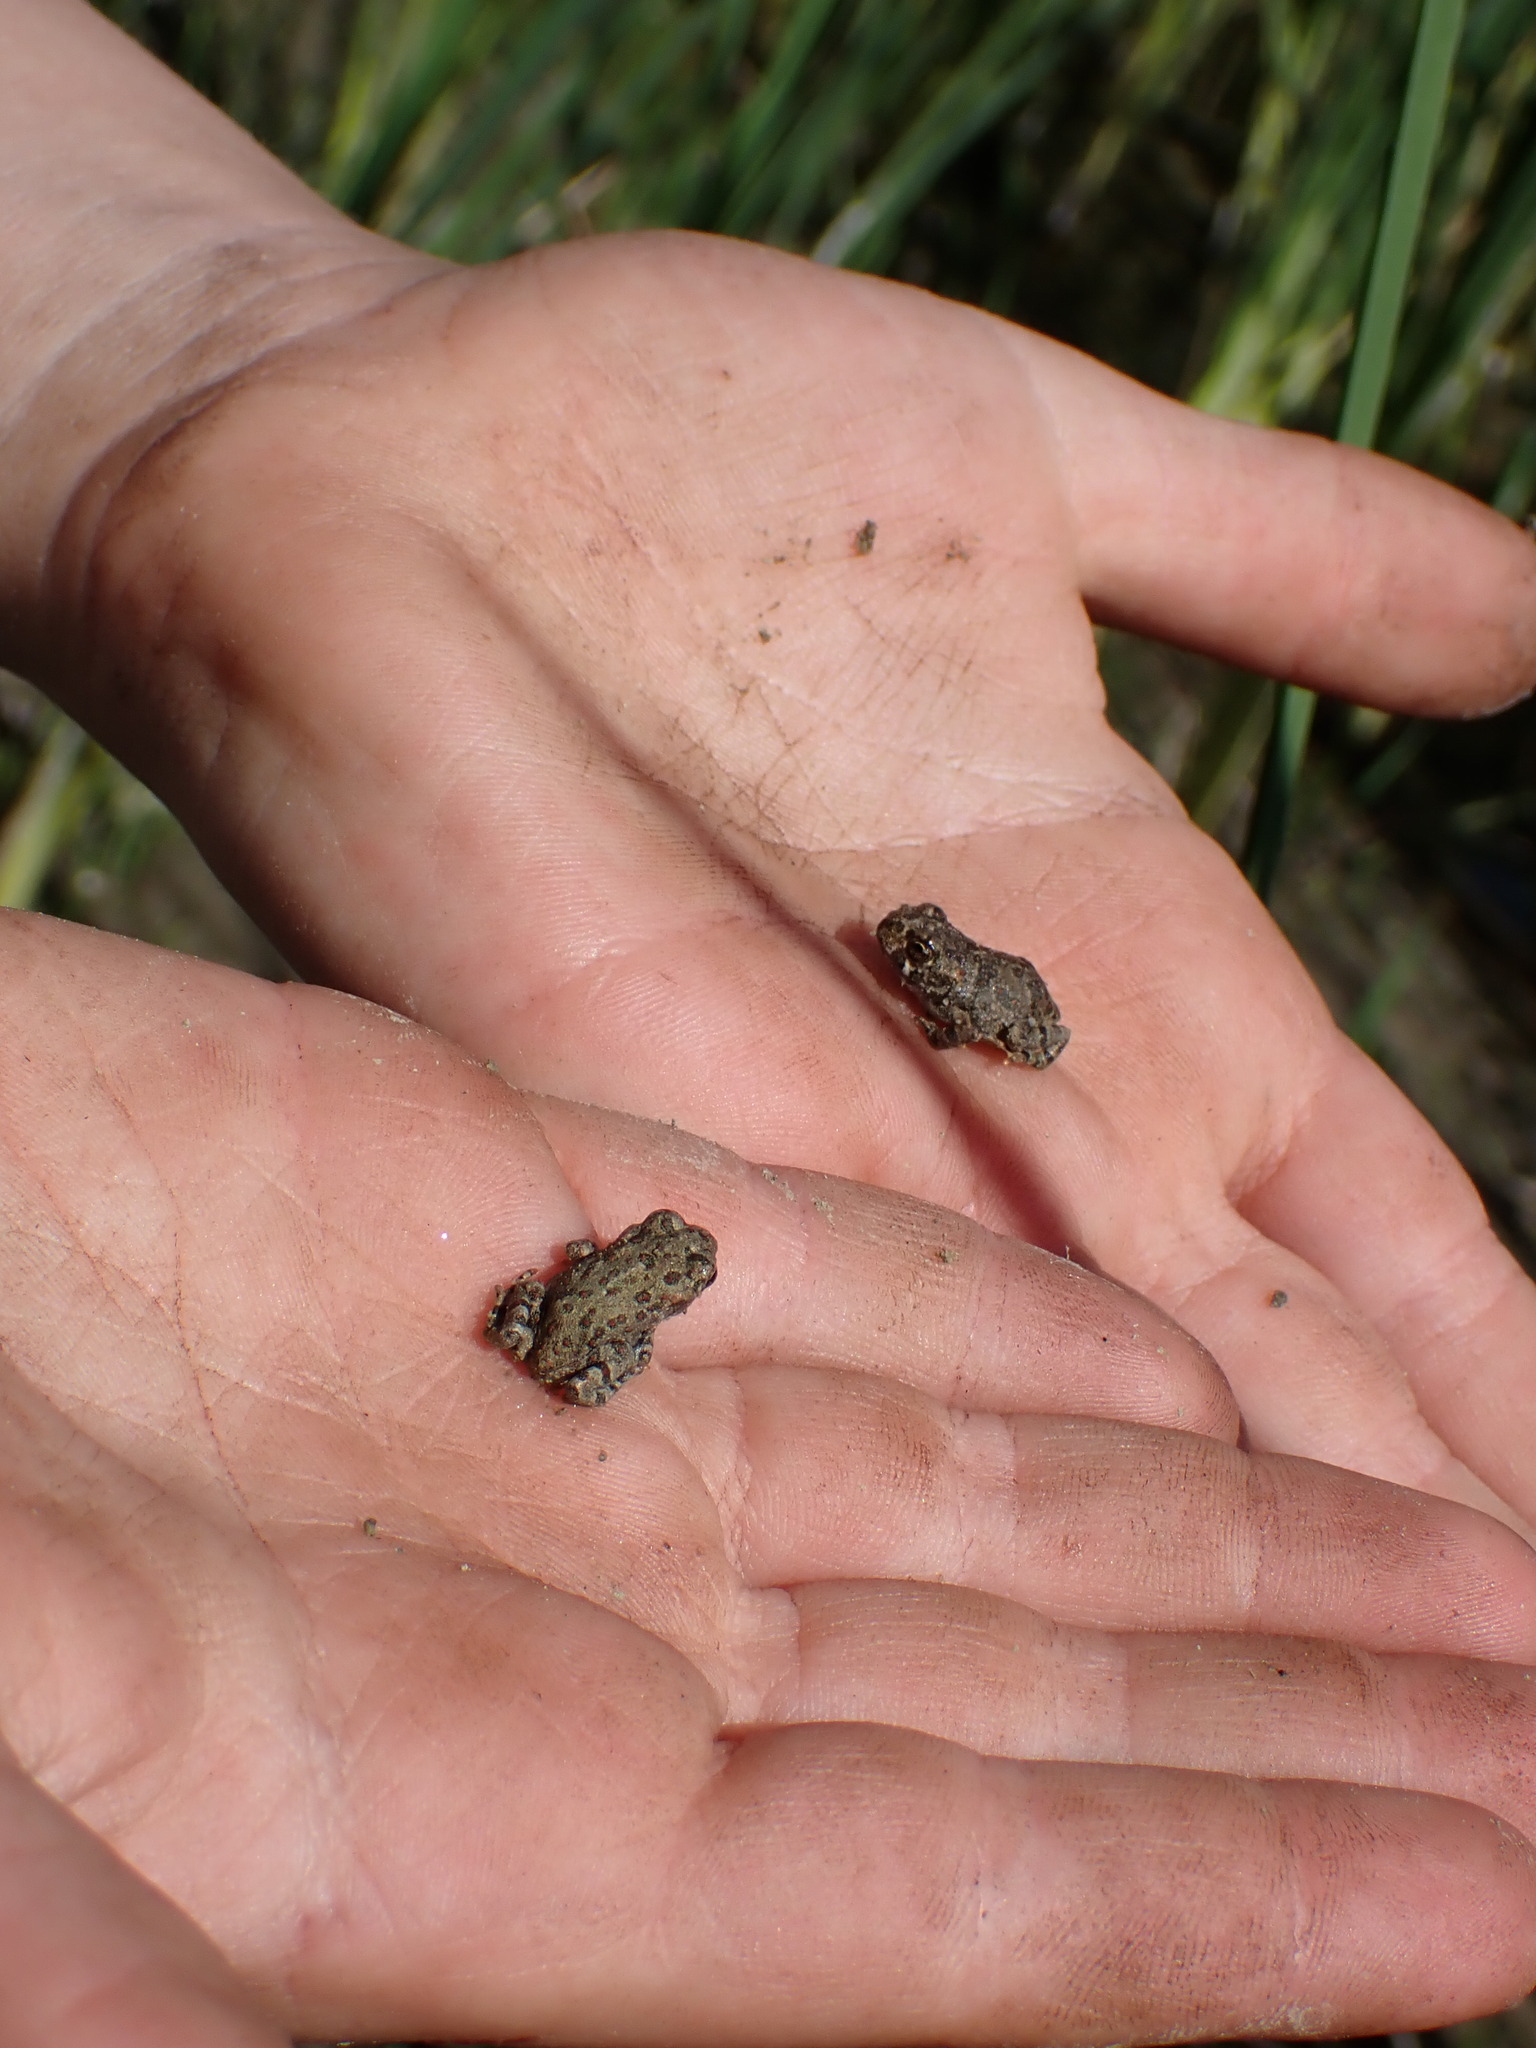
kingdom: Animalia
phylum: Chordata
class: Amphibia
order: Anura
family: Bufonidae
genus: Anaxyrus
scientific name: Anaxyrus boreas
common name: Western toad
